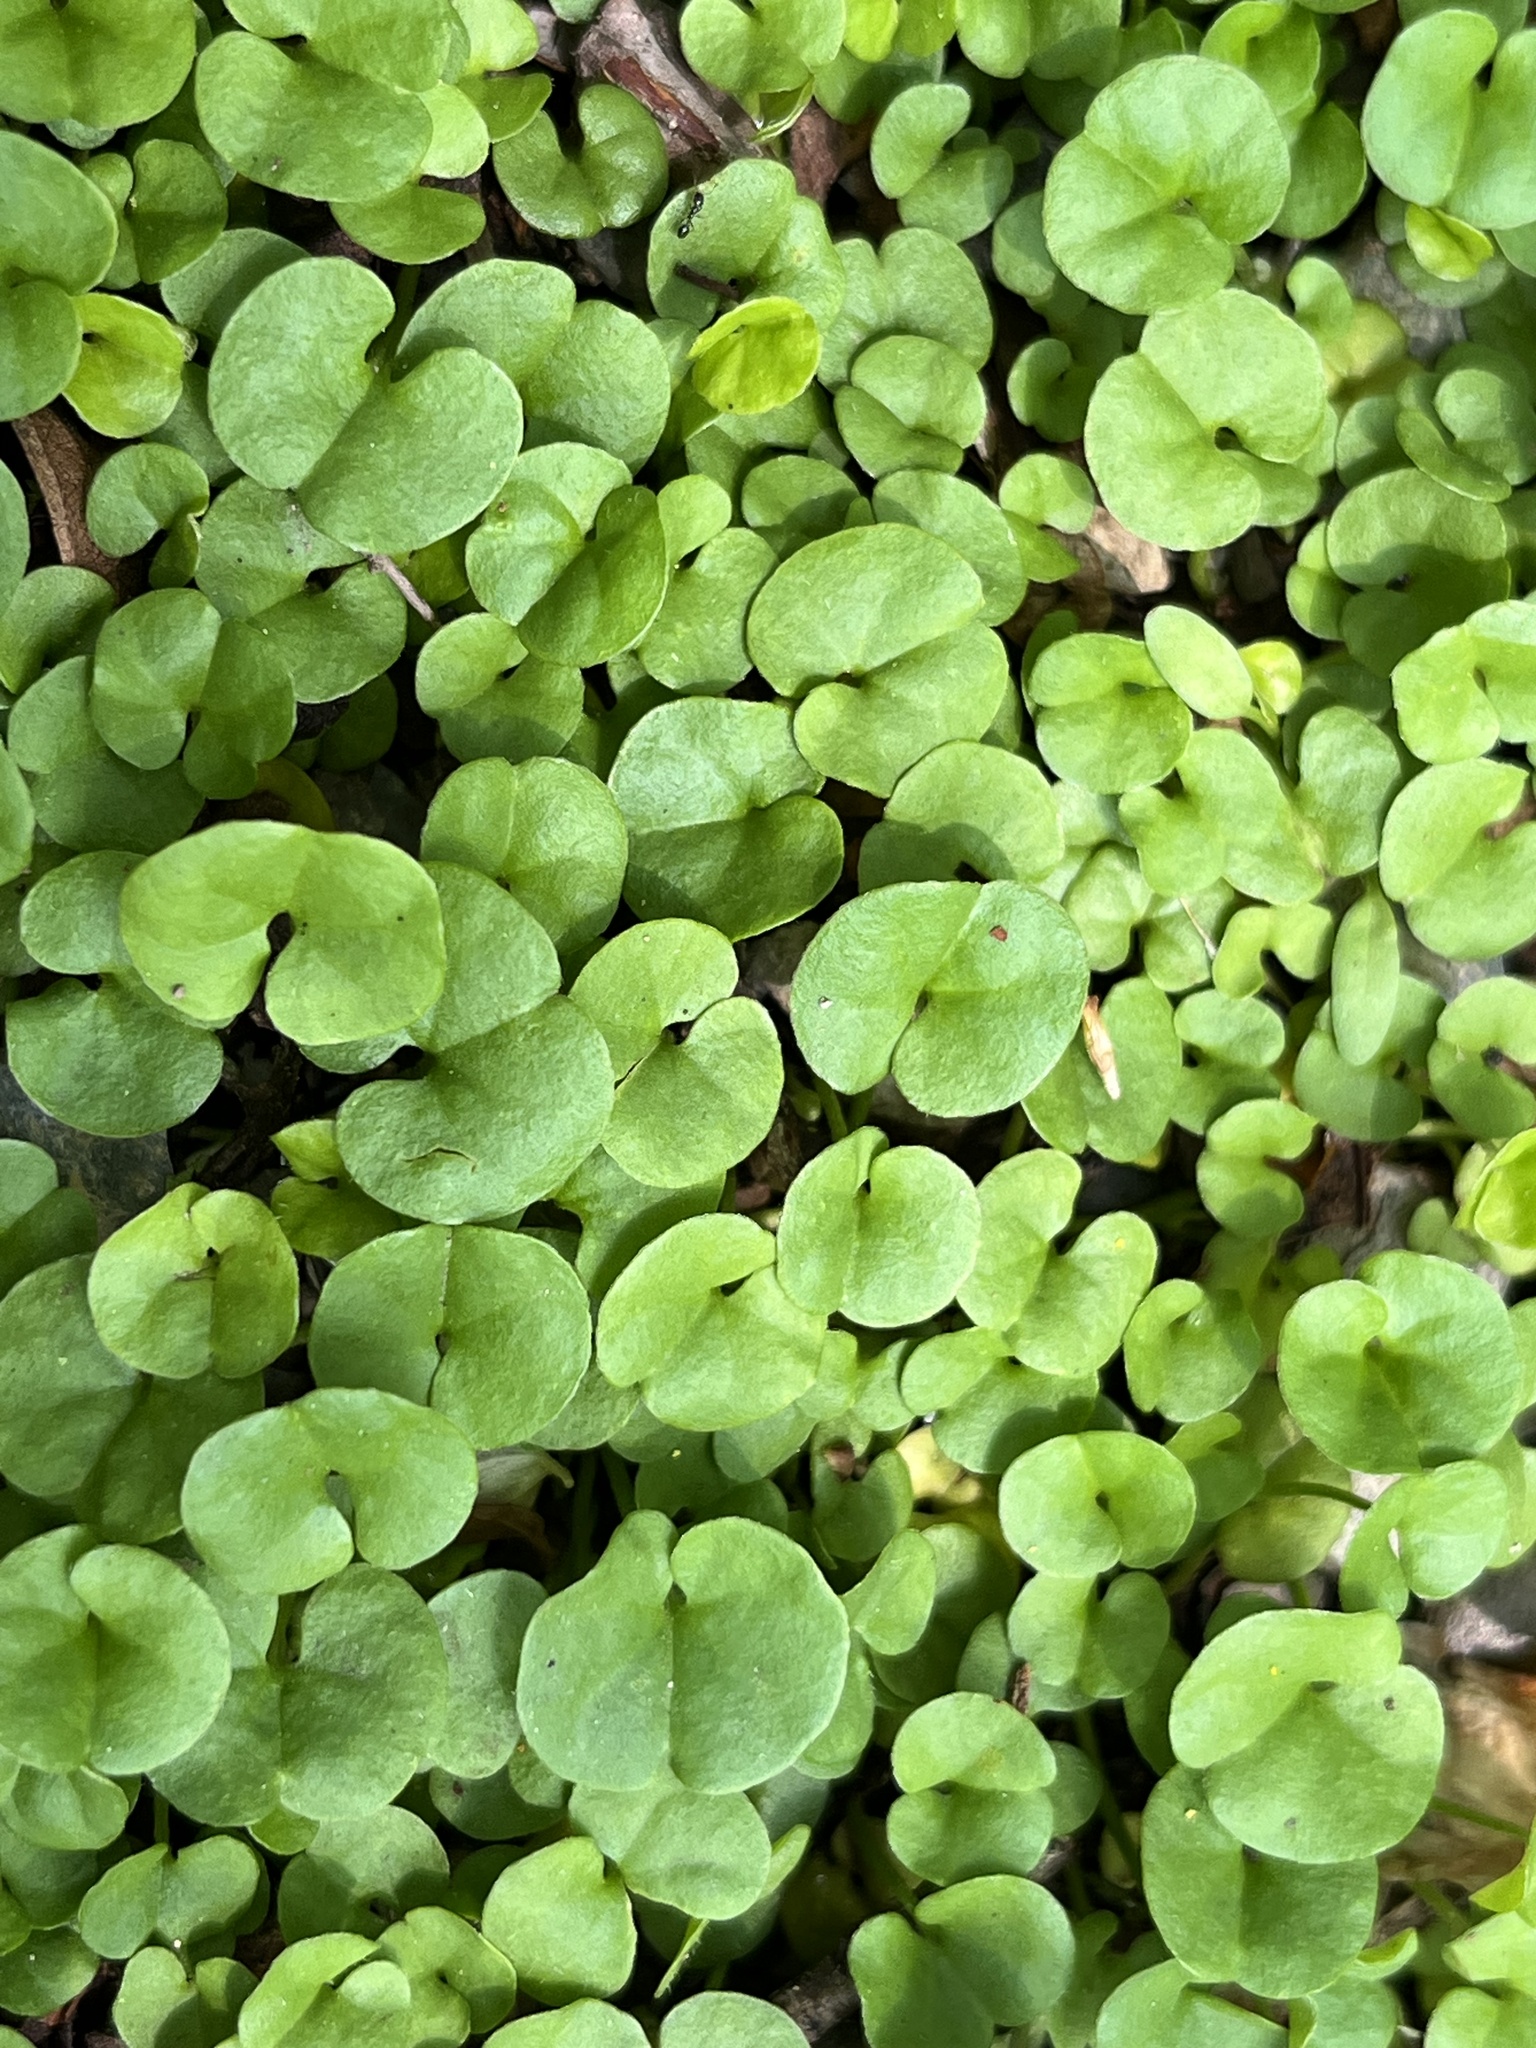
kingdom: Plantae
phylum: Tracheophyta
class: Magnoliopsida
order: Solanales
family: Convolvulaceae
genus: Dichondra
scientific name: Dichondra micrantha
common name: Kidneyweed
